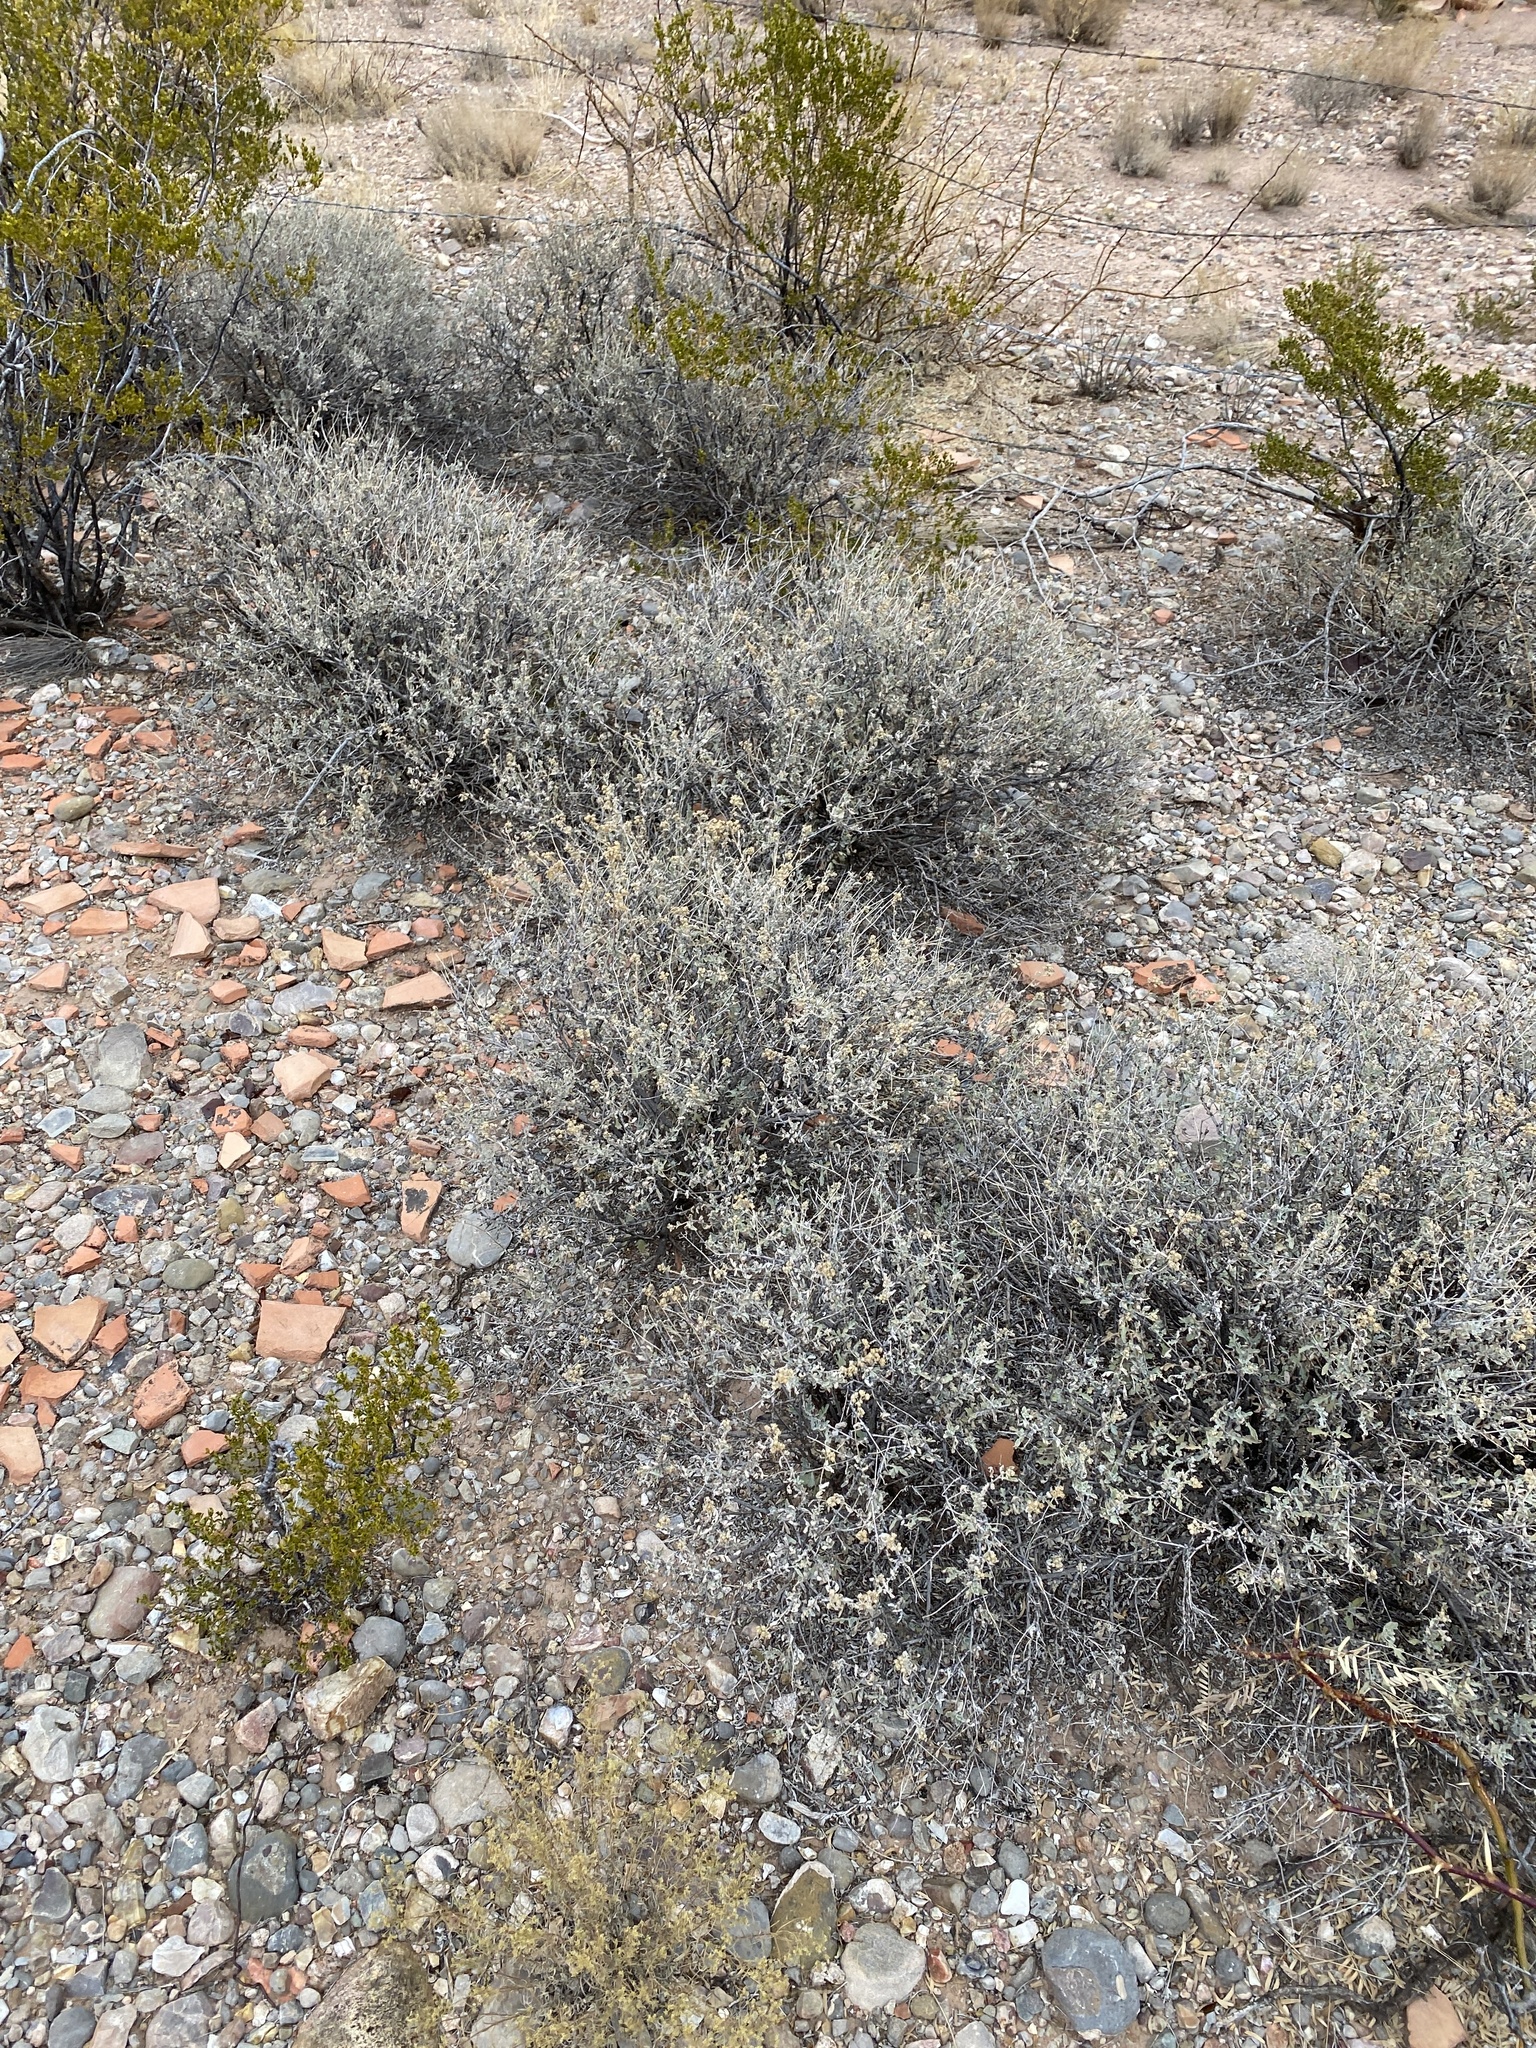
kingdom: Plantae
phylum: Tracheophyta
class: Magnoliopsida
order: Asterales
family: Asteraceae
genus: Parthenium
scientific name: Parthenium incanum
